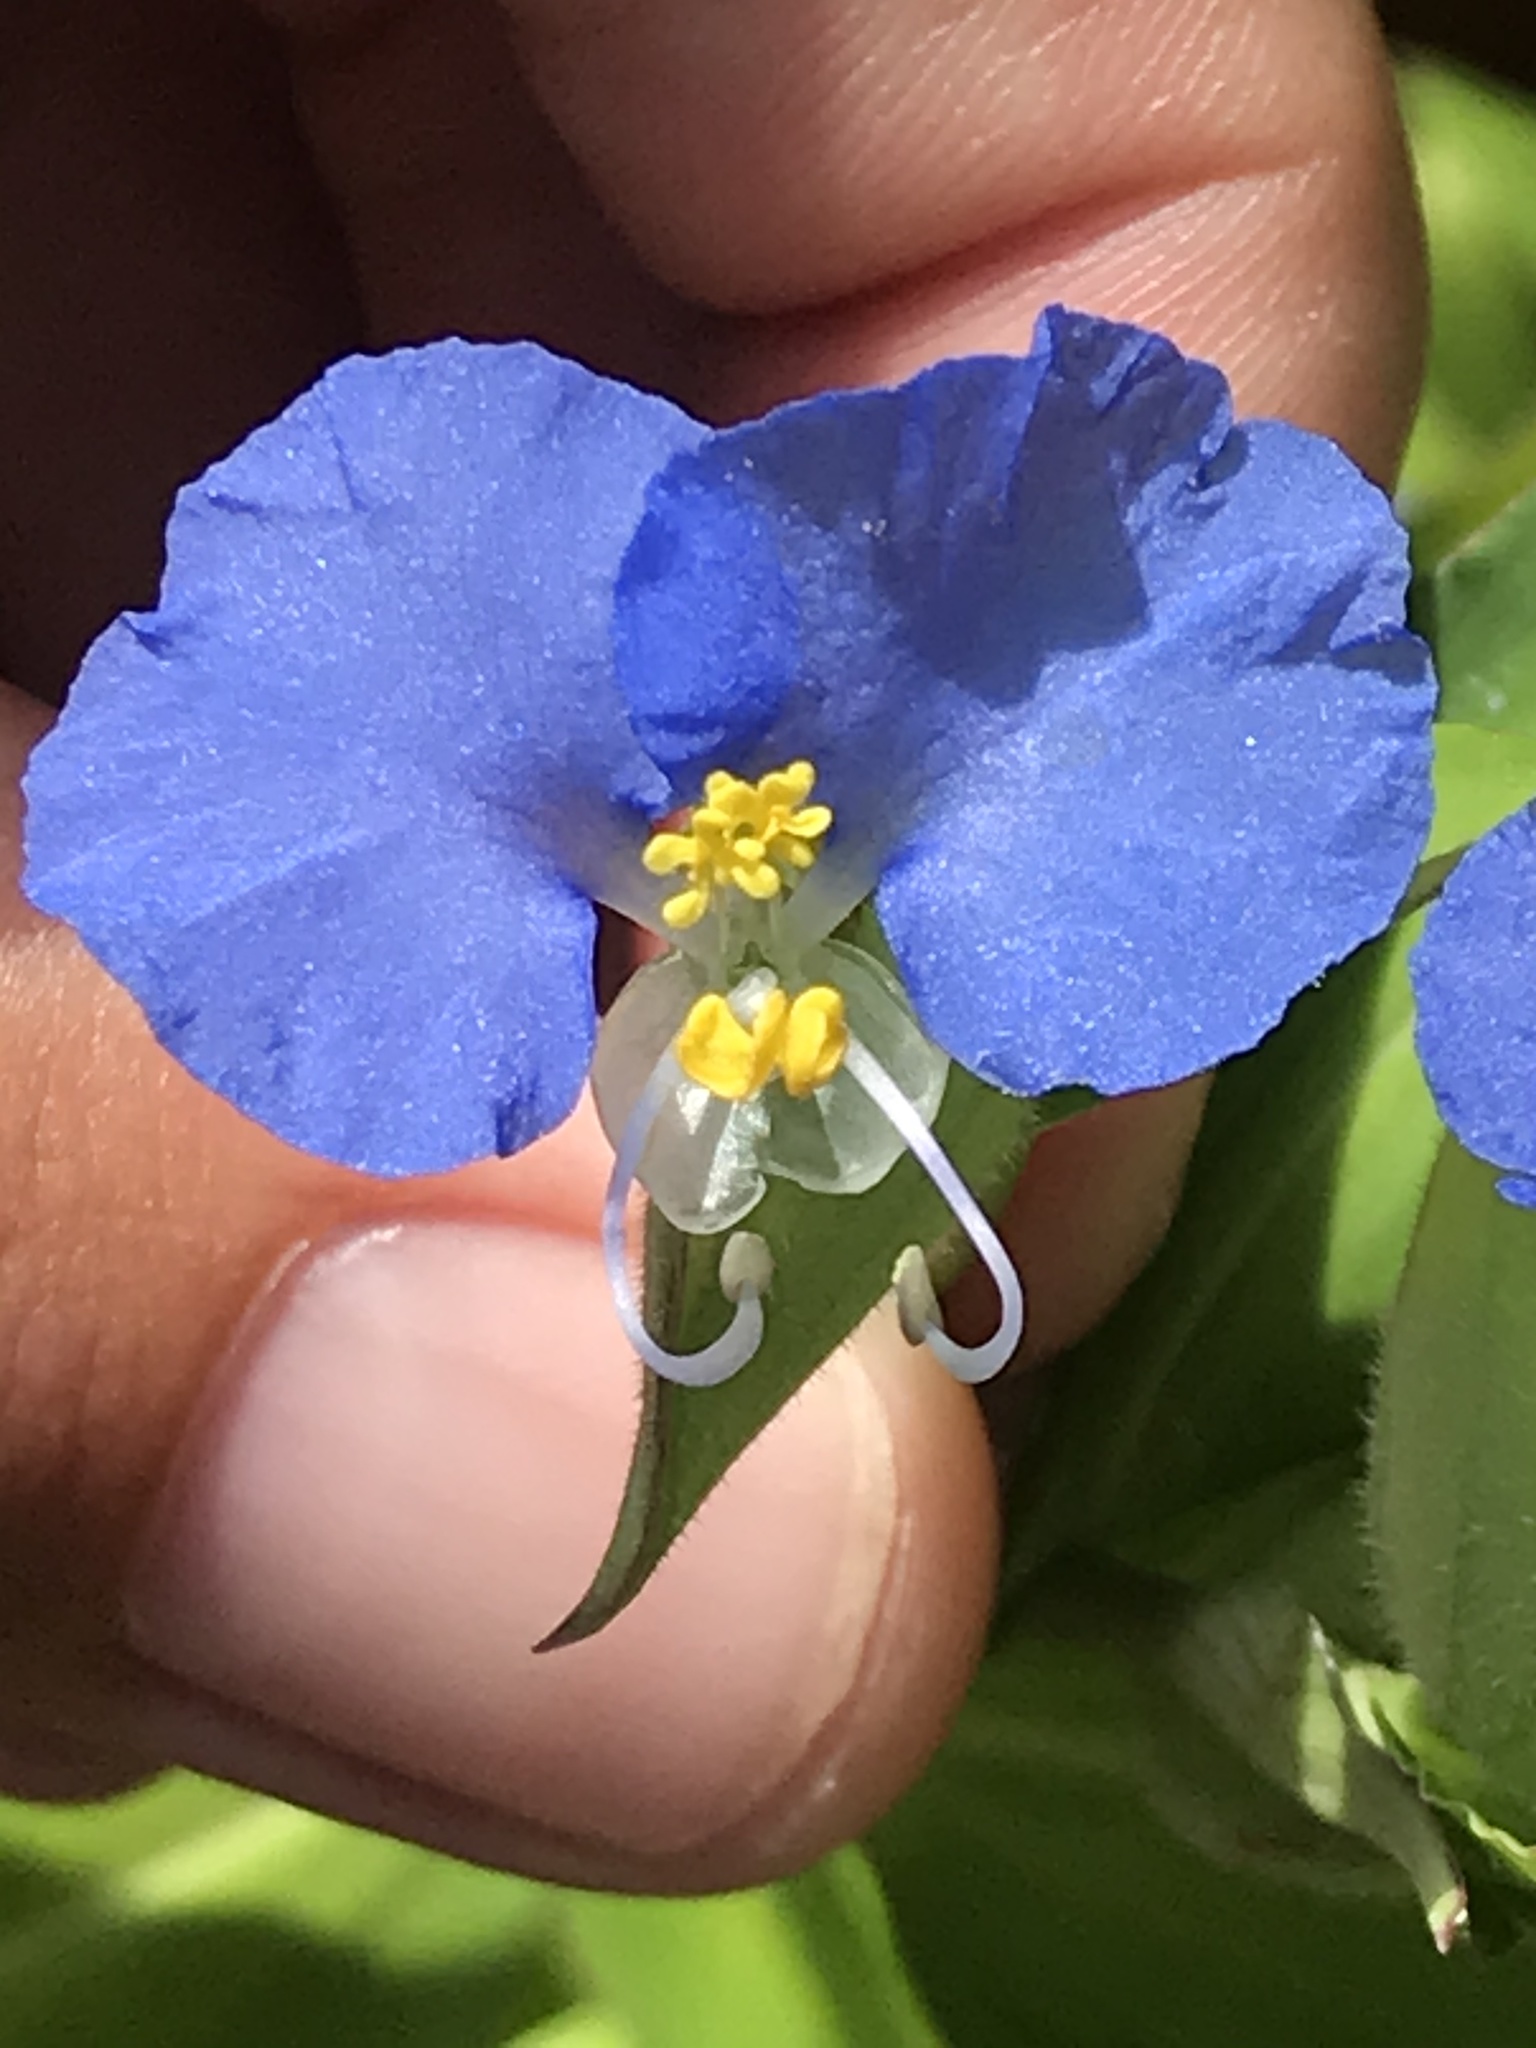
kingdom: Plantae
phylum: Tracheophyta
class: Liliopsida
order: Commelinales
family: Commelinaceae
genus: Commelina
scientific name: Commelina erecta
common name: Blousel blommetjie
